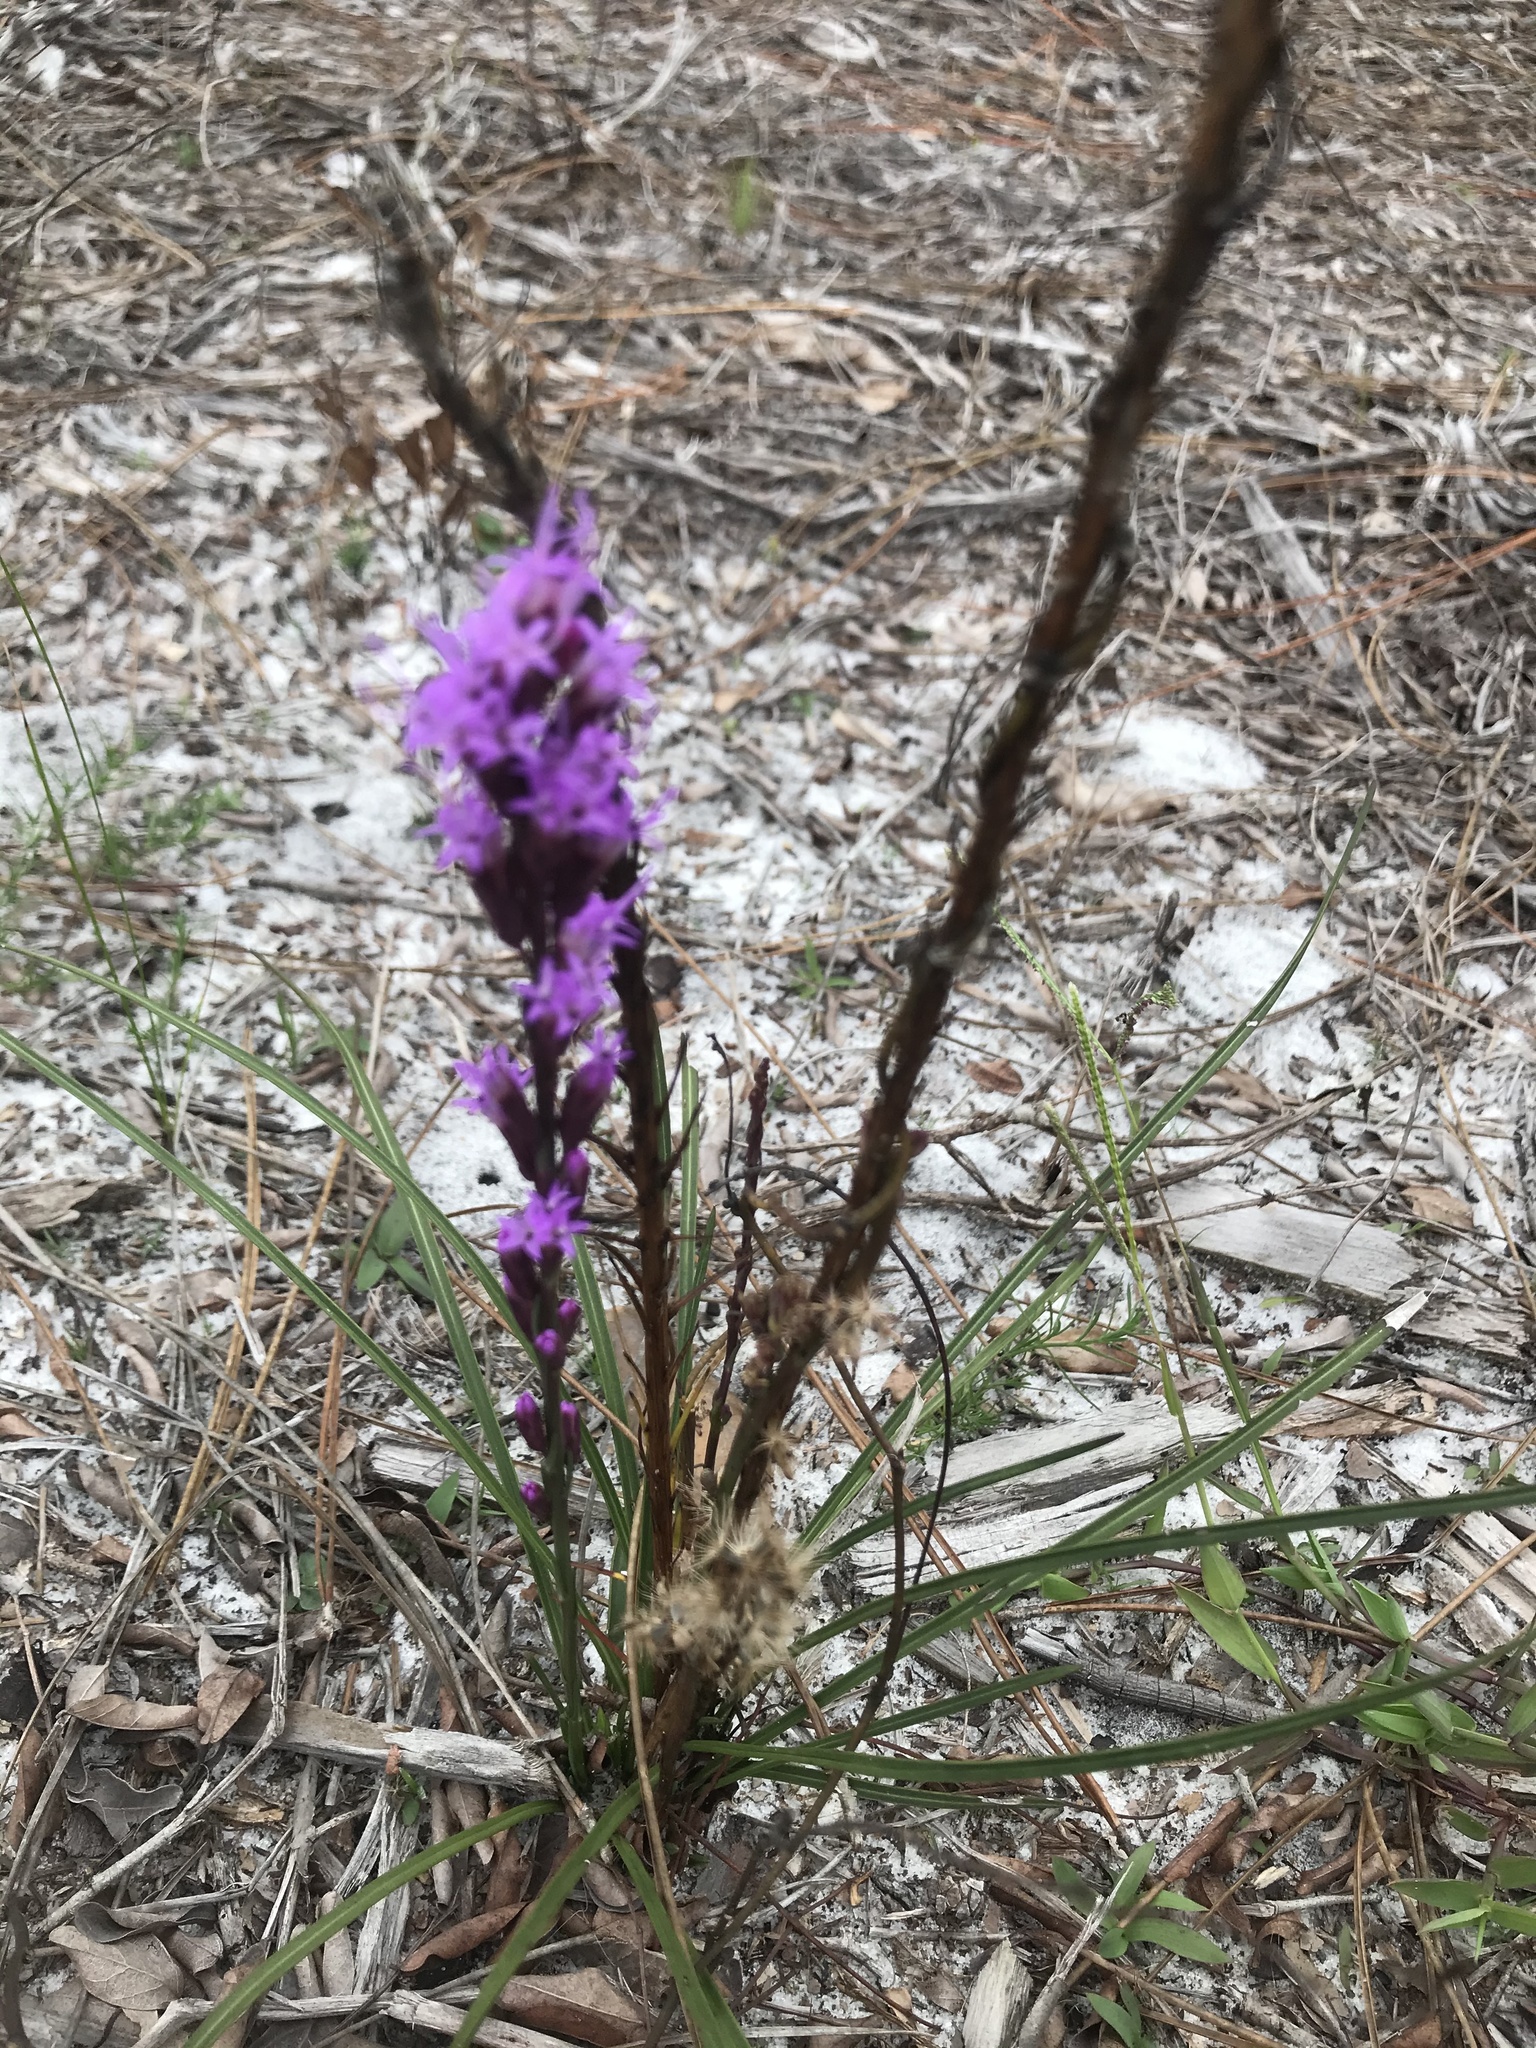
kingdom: Plantae
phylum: Tracheophyta
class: Magnoliopsida
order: Asterales
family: Asteraceae
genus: Liatris
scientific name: Liatris quadriflora
